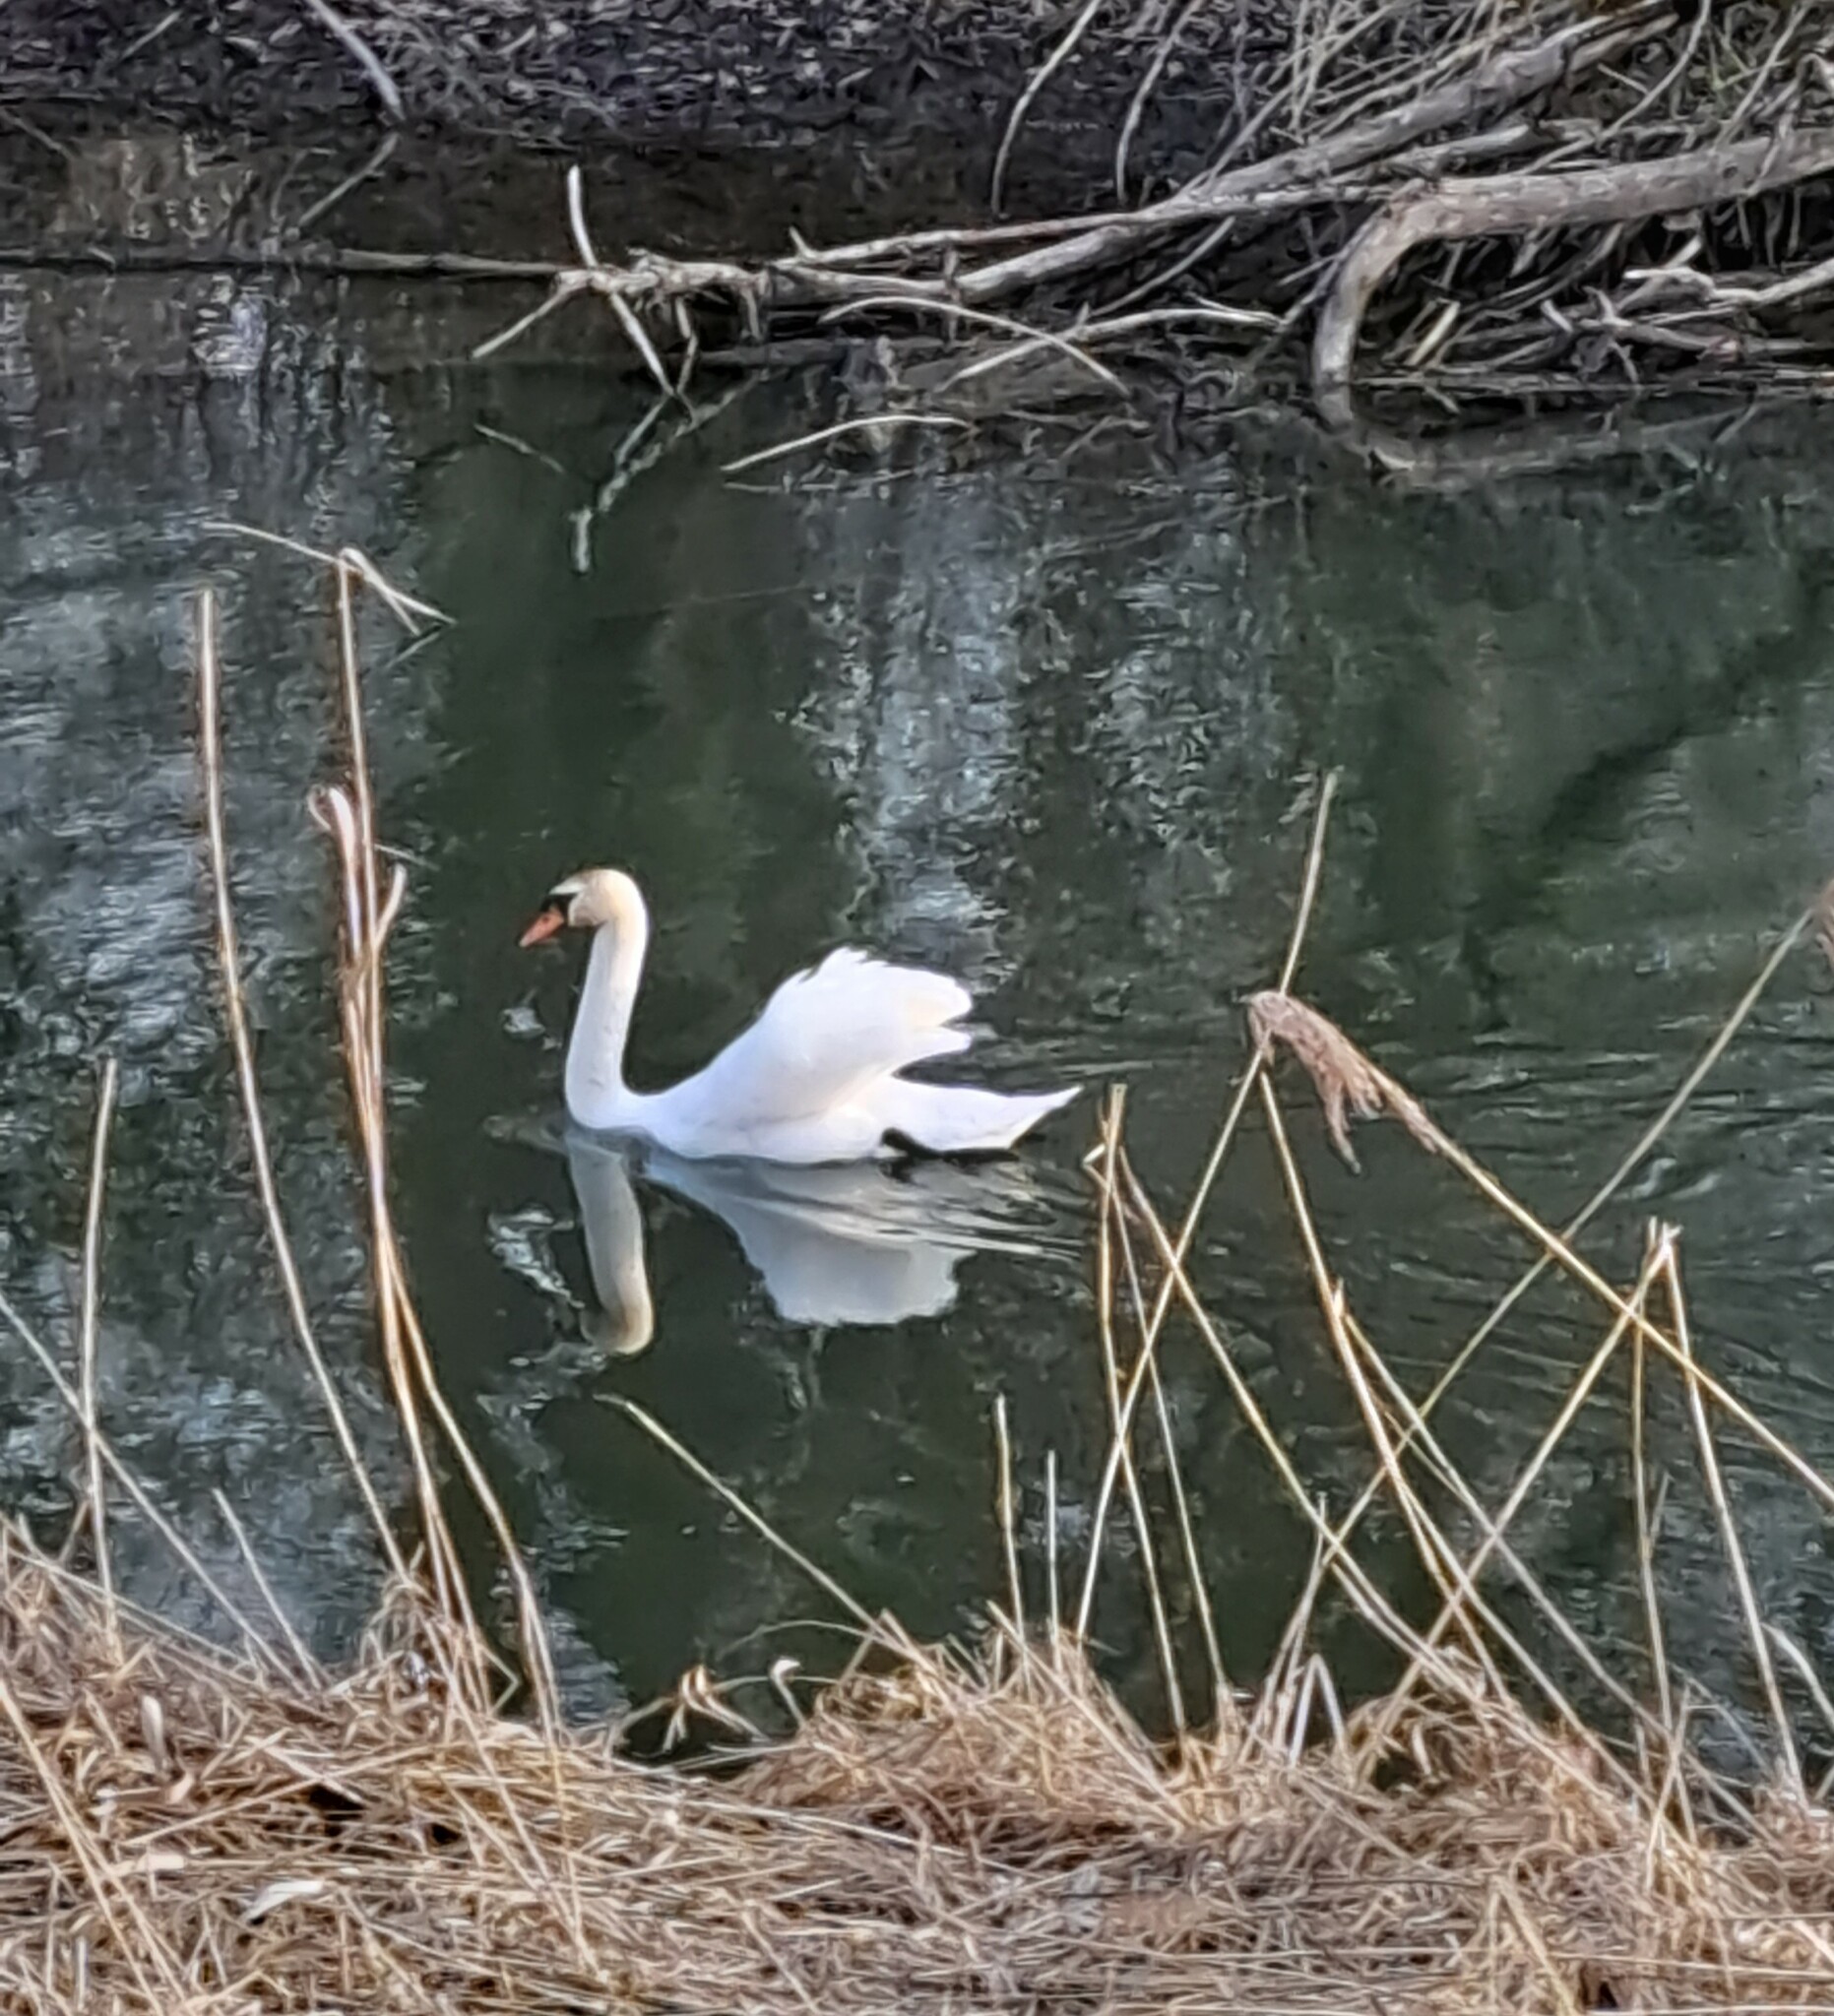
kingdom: Animalia
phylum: Chordata
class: Aves
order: Anseriformes
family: Anatidae
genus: Cygnus
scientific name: Cygnus olor
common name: Mute swan
